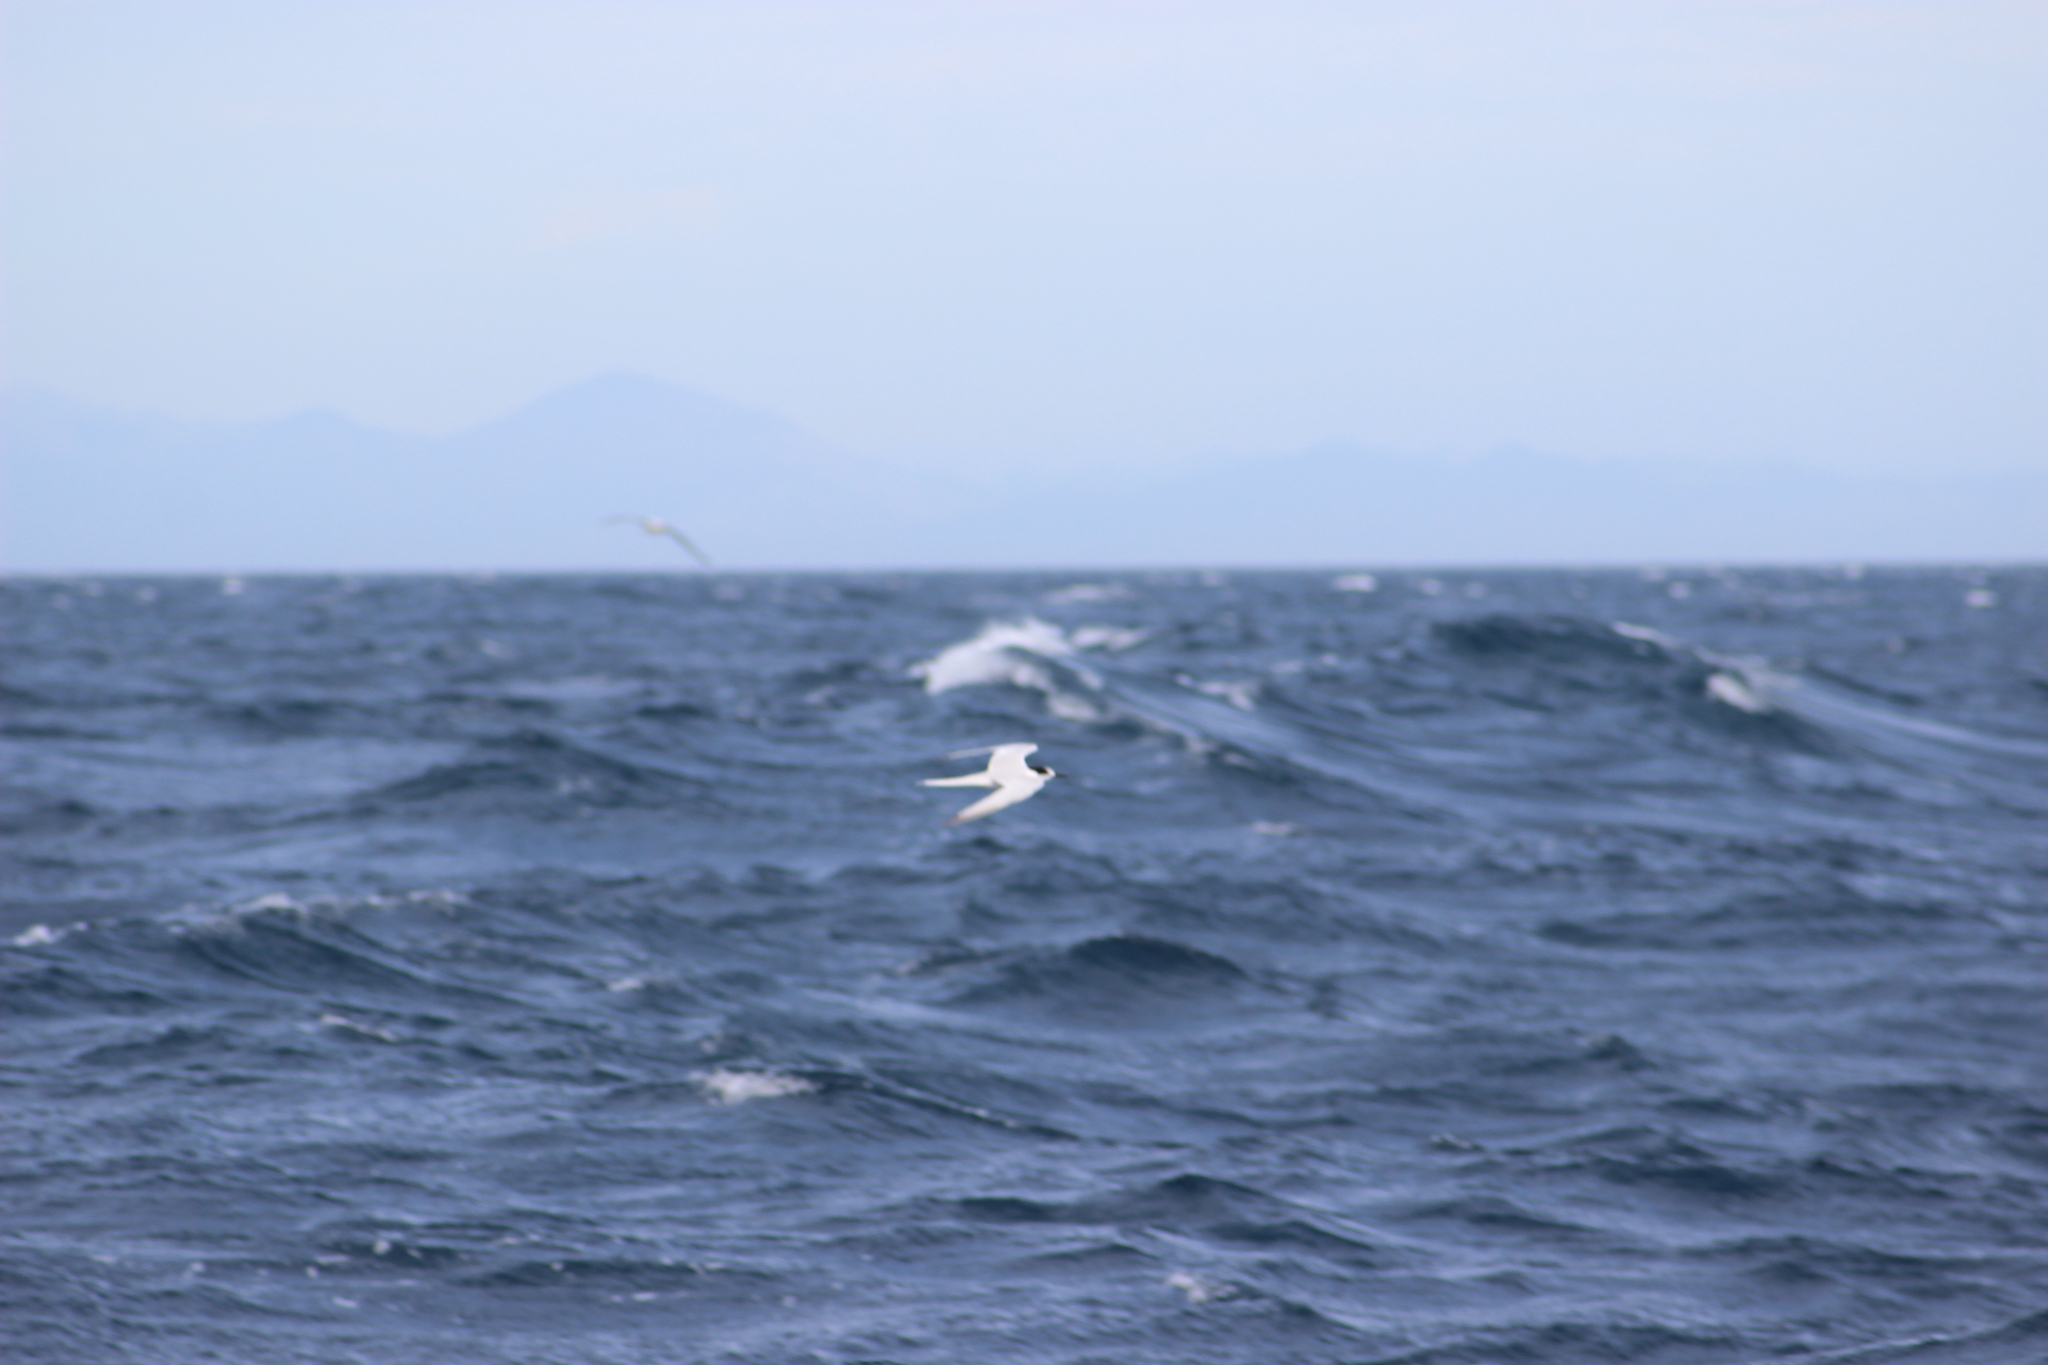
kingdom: Animalia
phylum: Chordata
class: Aves
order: Charadriiformes
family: Laridae
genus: Sterna
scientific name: Sterna striata
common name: White-fronted tern
